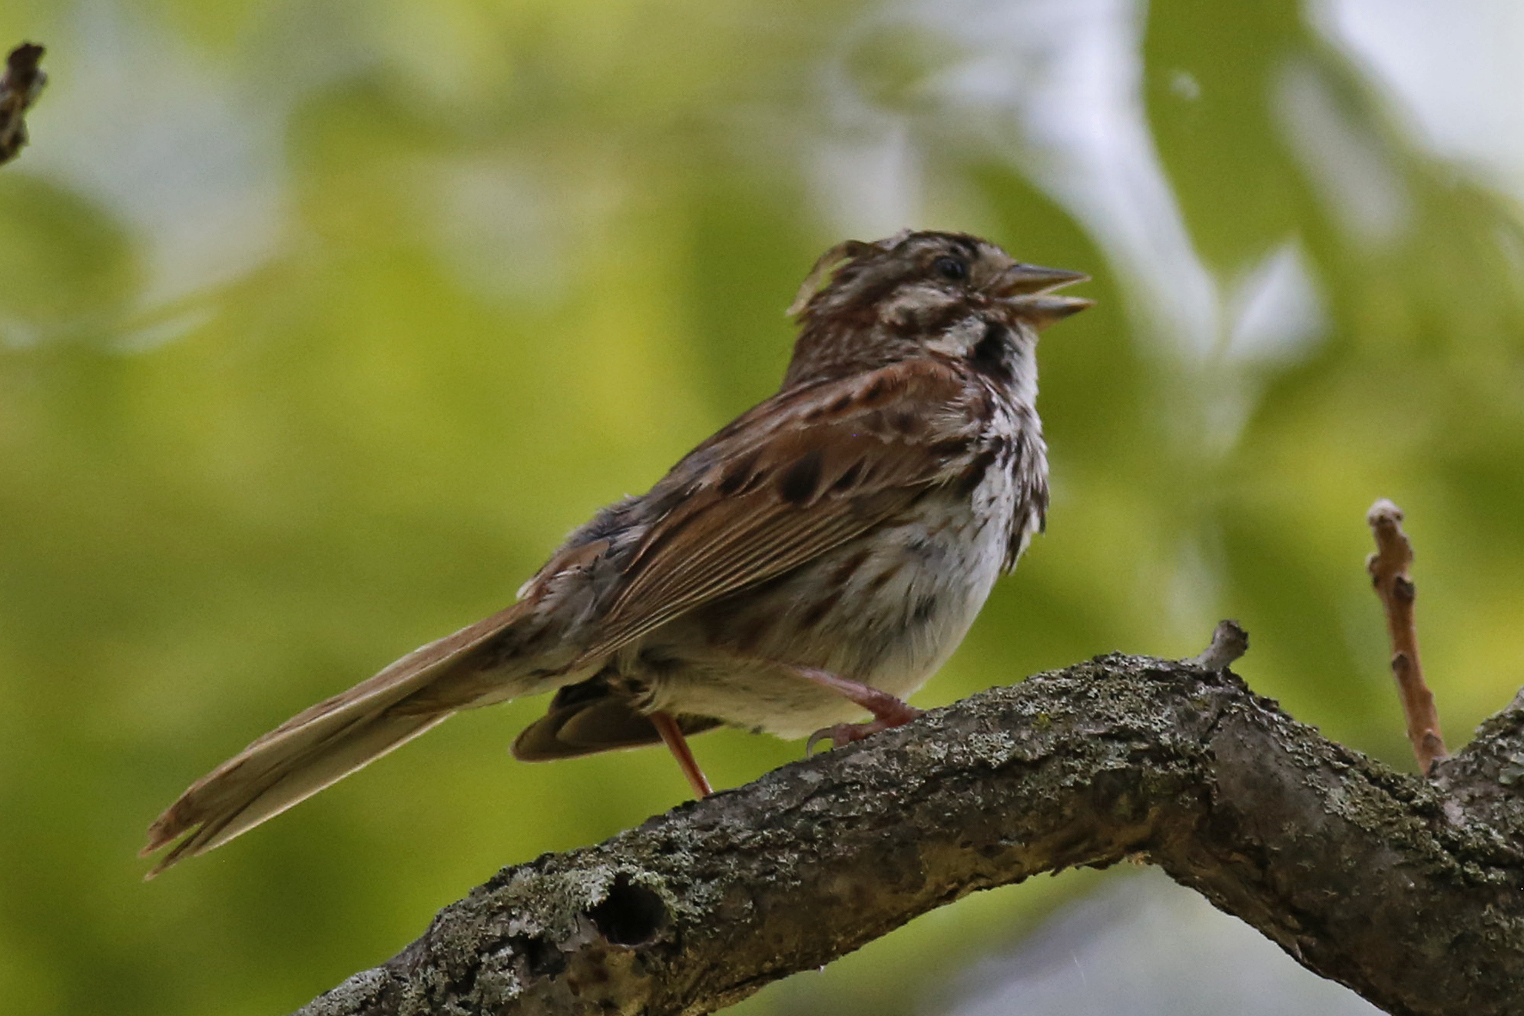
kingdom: Animalia
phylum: Chordata
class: Aves
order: Passeriformes
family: Passerellidae
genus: Melospiza
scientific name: Melospiza melodia
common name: Song sparrow
